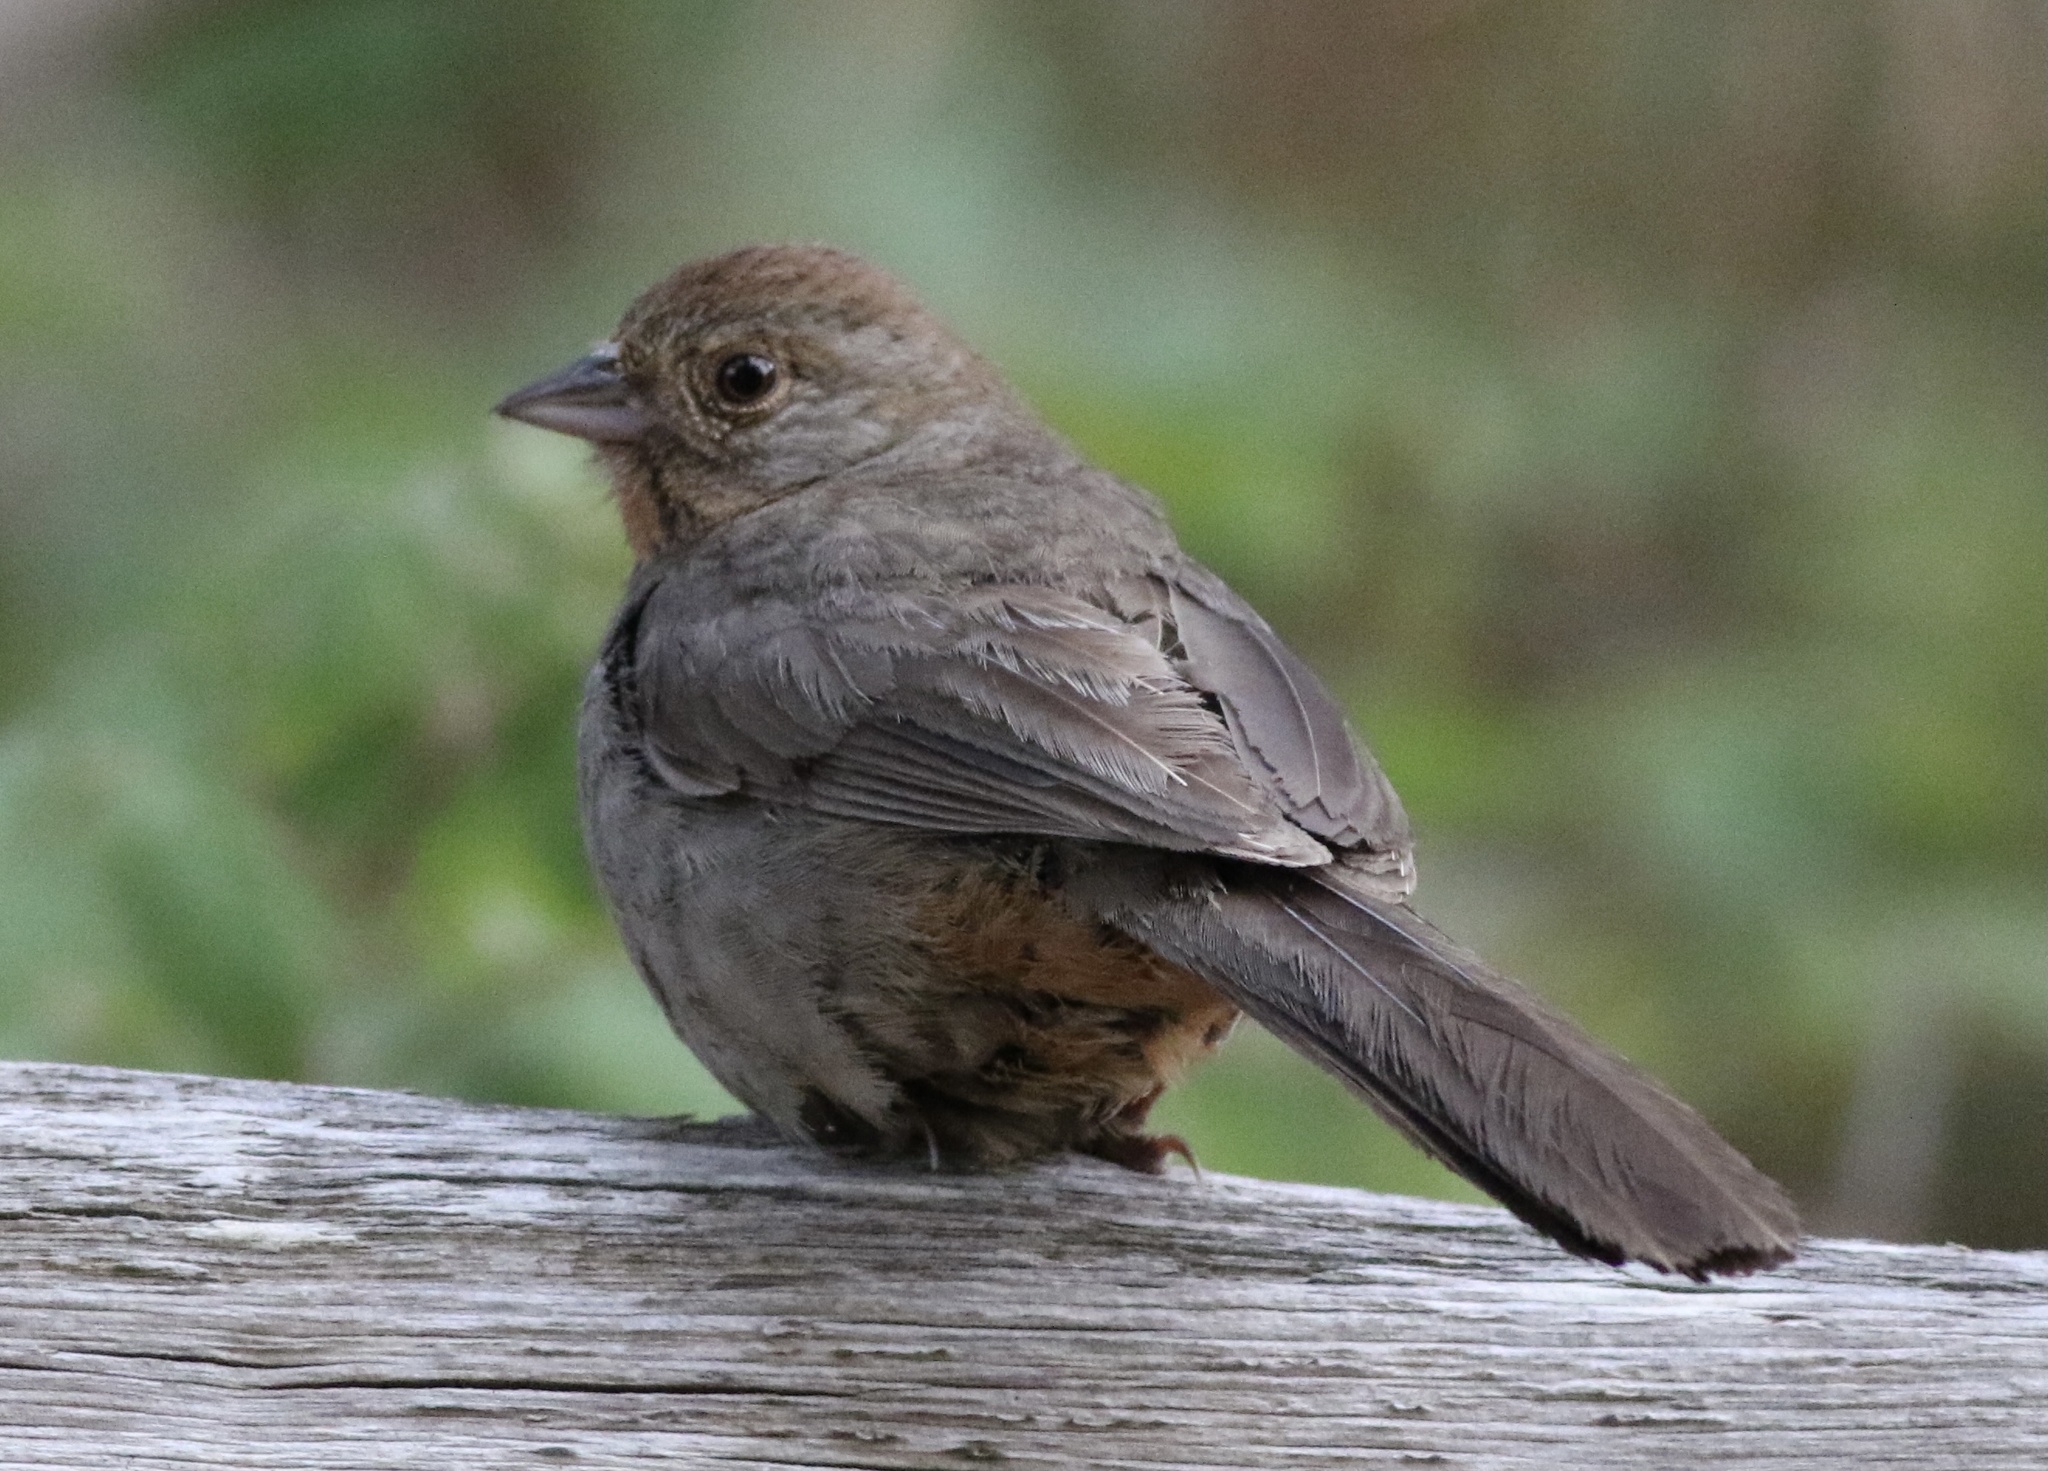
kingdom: Animalia
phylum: Chordata
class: Aves
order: Passeriformes
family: Passerellidae
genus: Melozone
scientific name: Melozone crissalis
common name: California towhee
